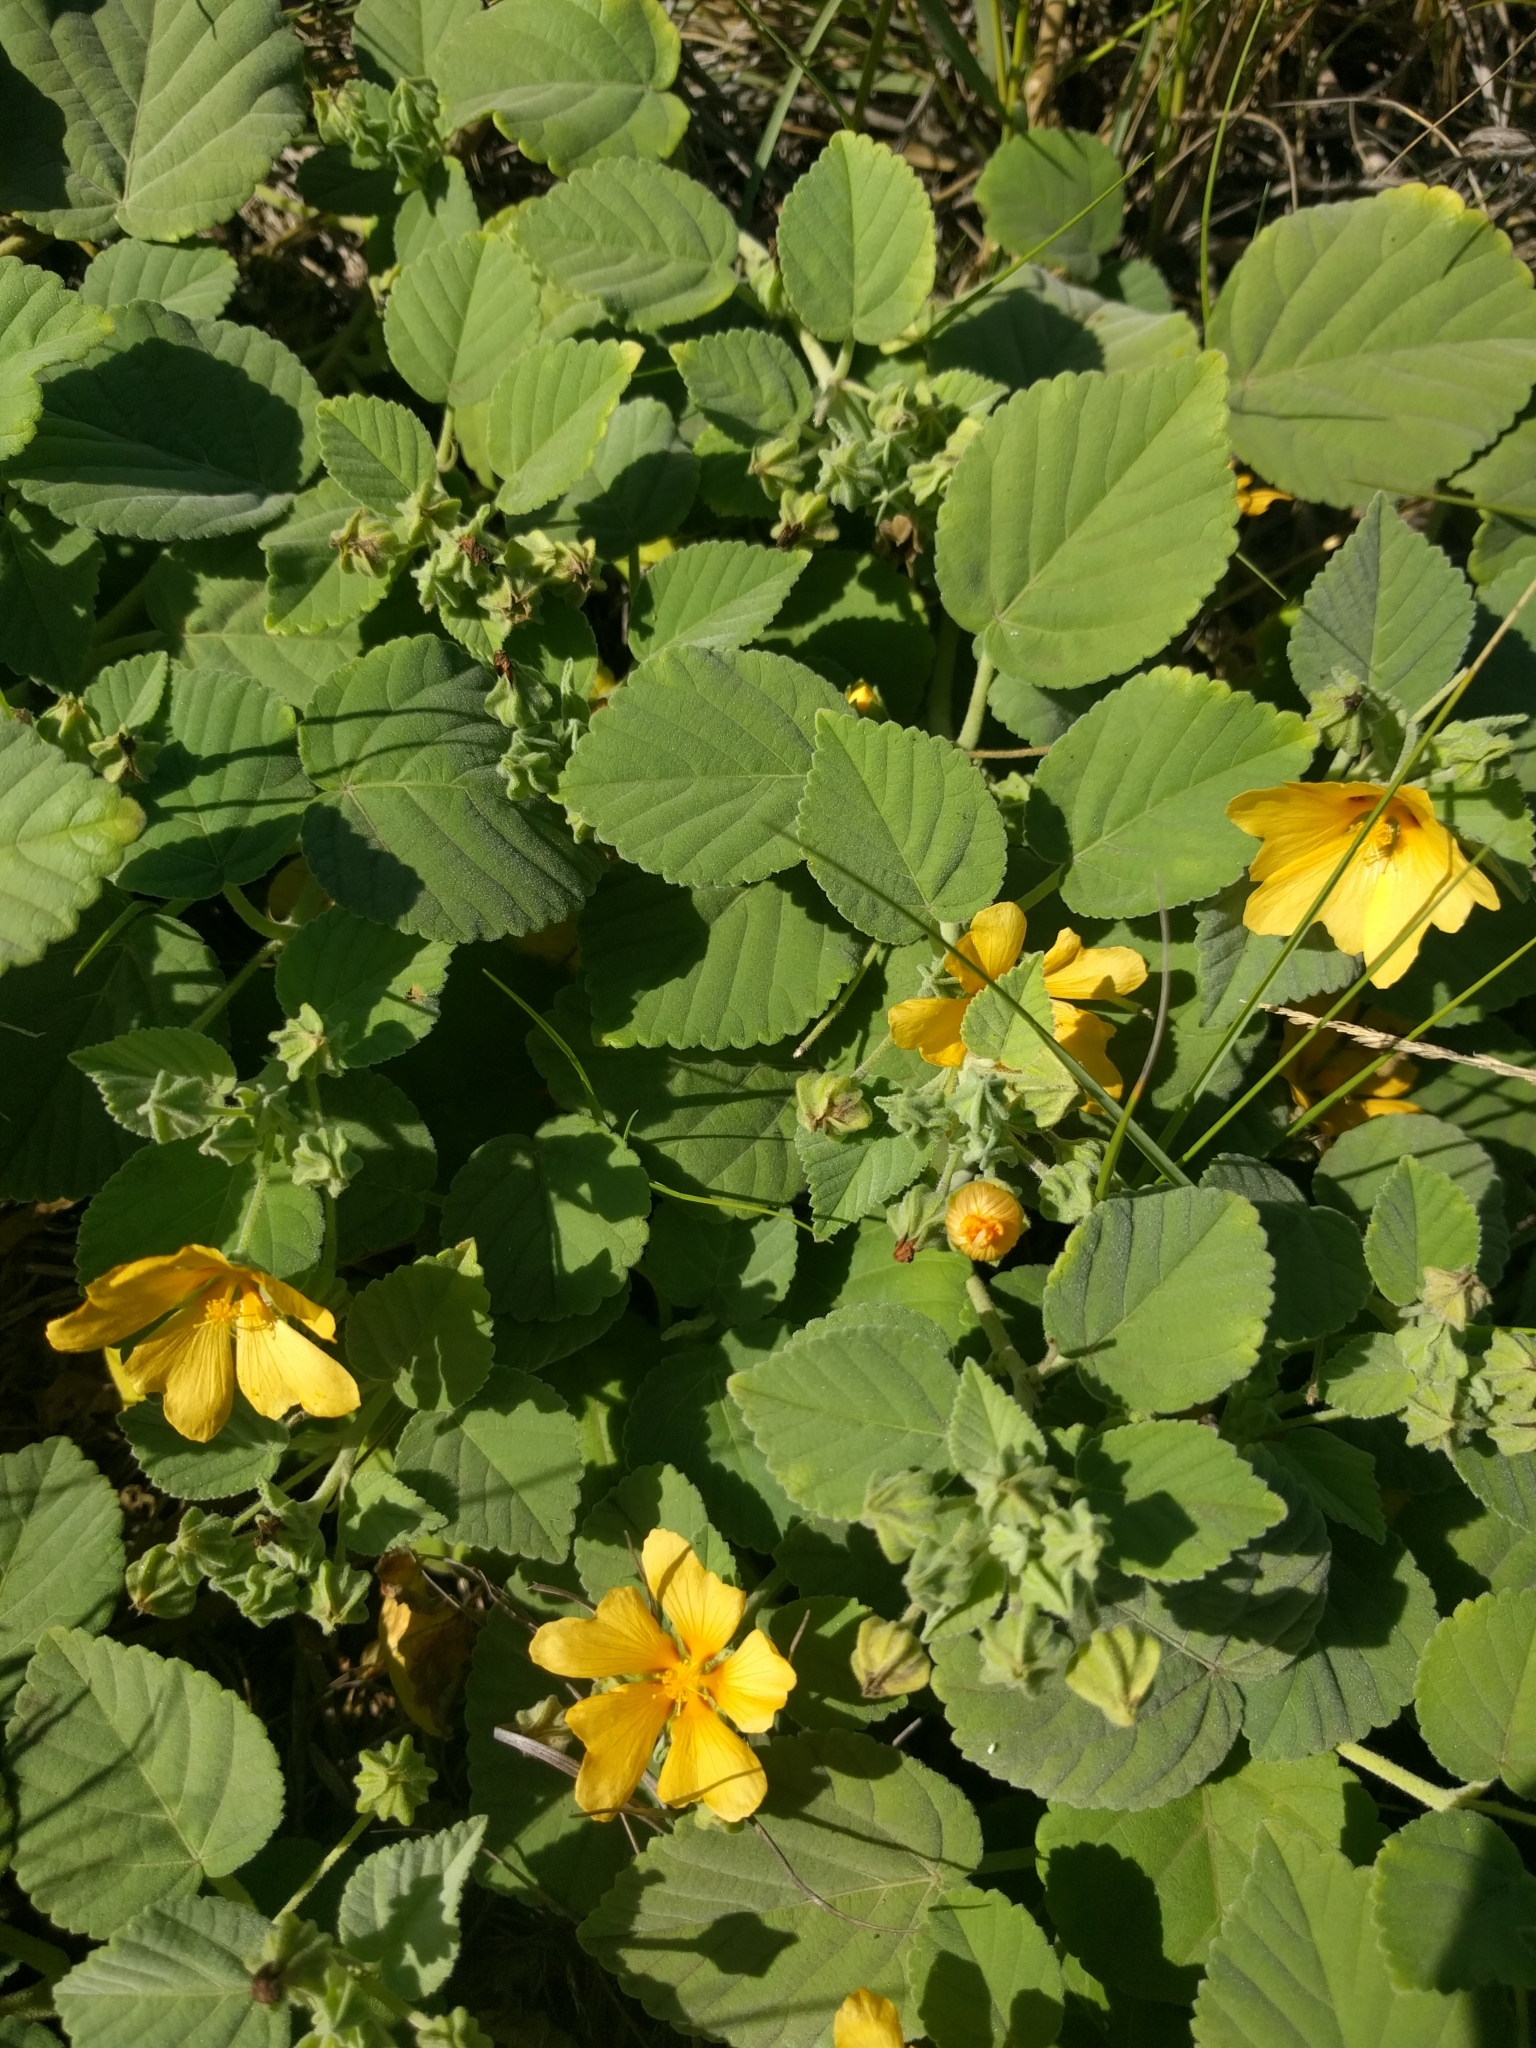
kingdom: Plantae
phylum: Tracheophyta
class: Magnoliopsida
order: Malvales
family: Malvaceae
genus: Sida
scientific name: Sida fallax
